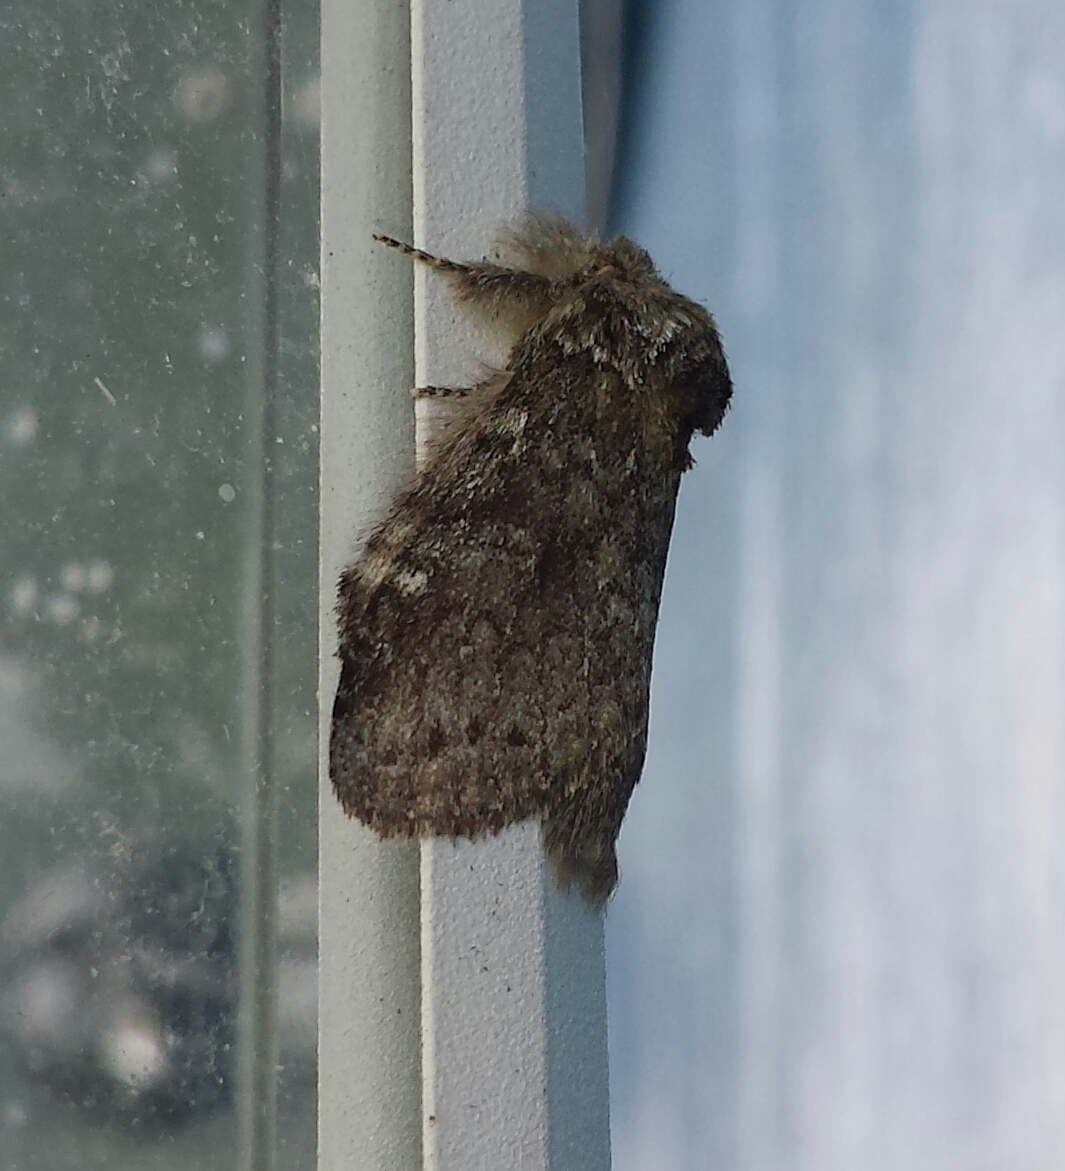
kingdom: Animalia
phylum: Arthropoda
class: Insecta
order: Lepidoptera
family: Notodontidae
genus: Disphragis
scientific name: Disphragis Cecrita guttivitta
